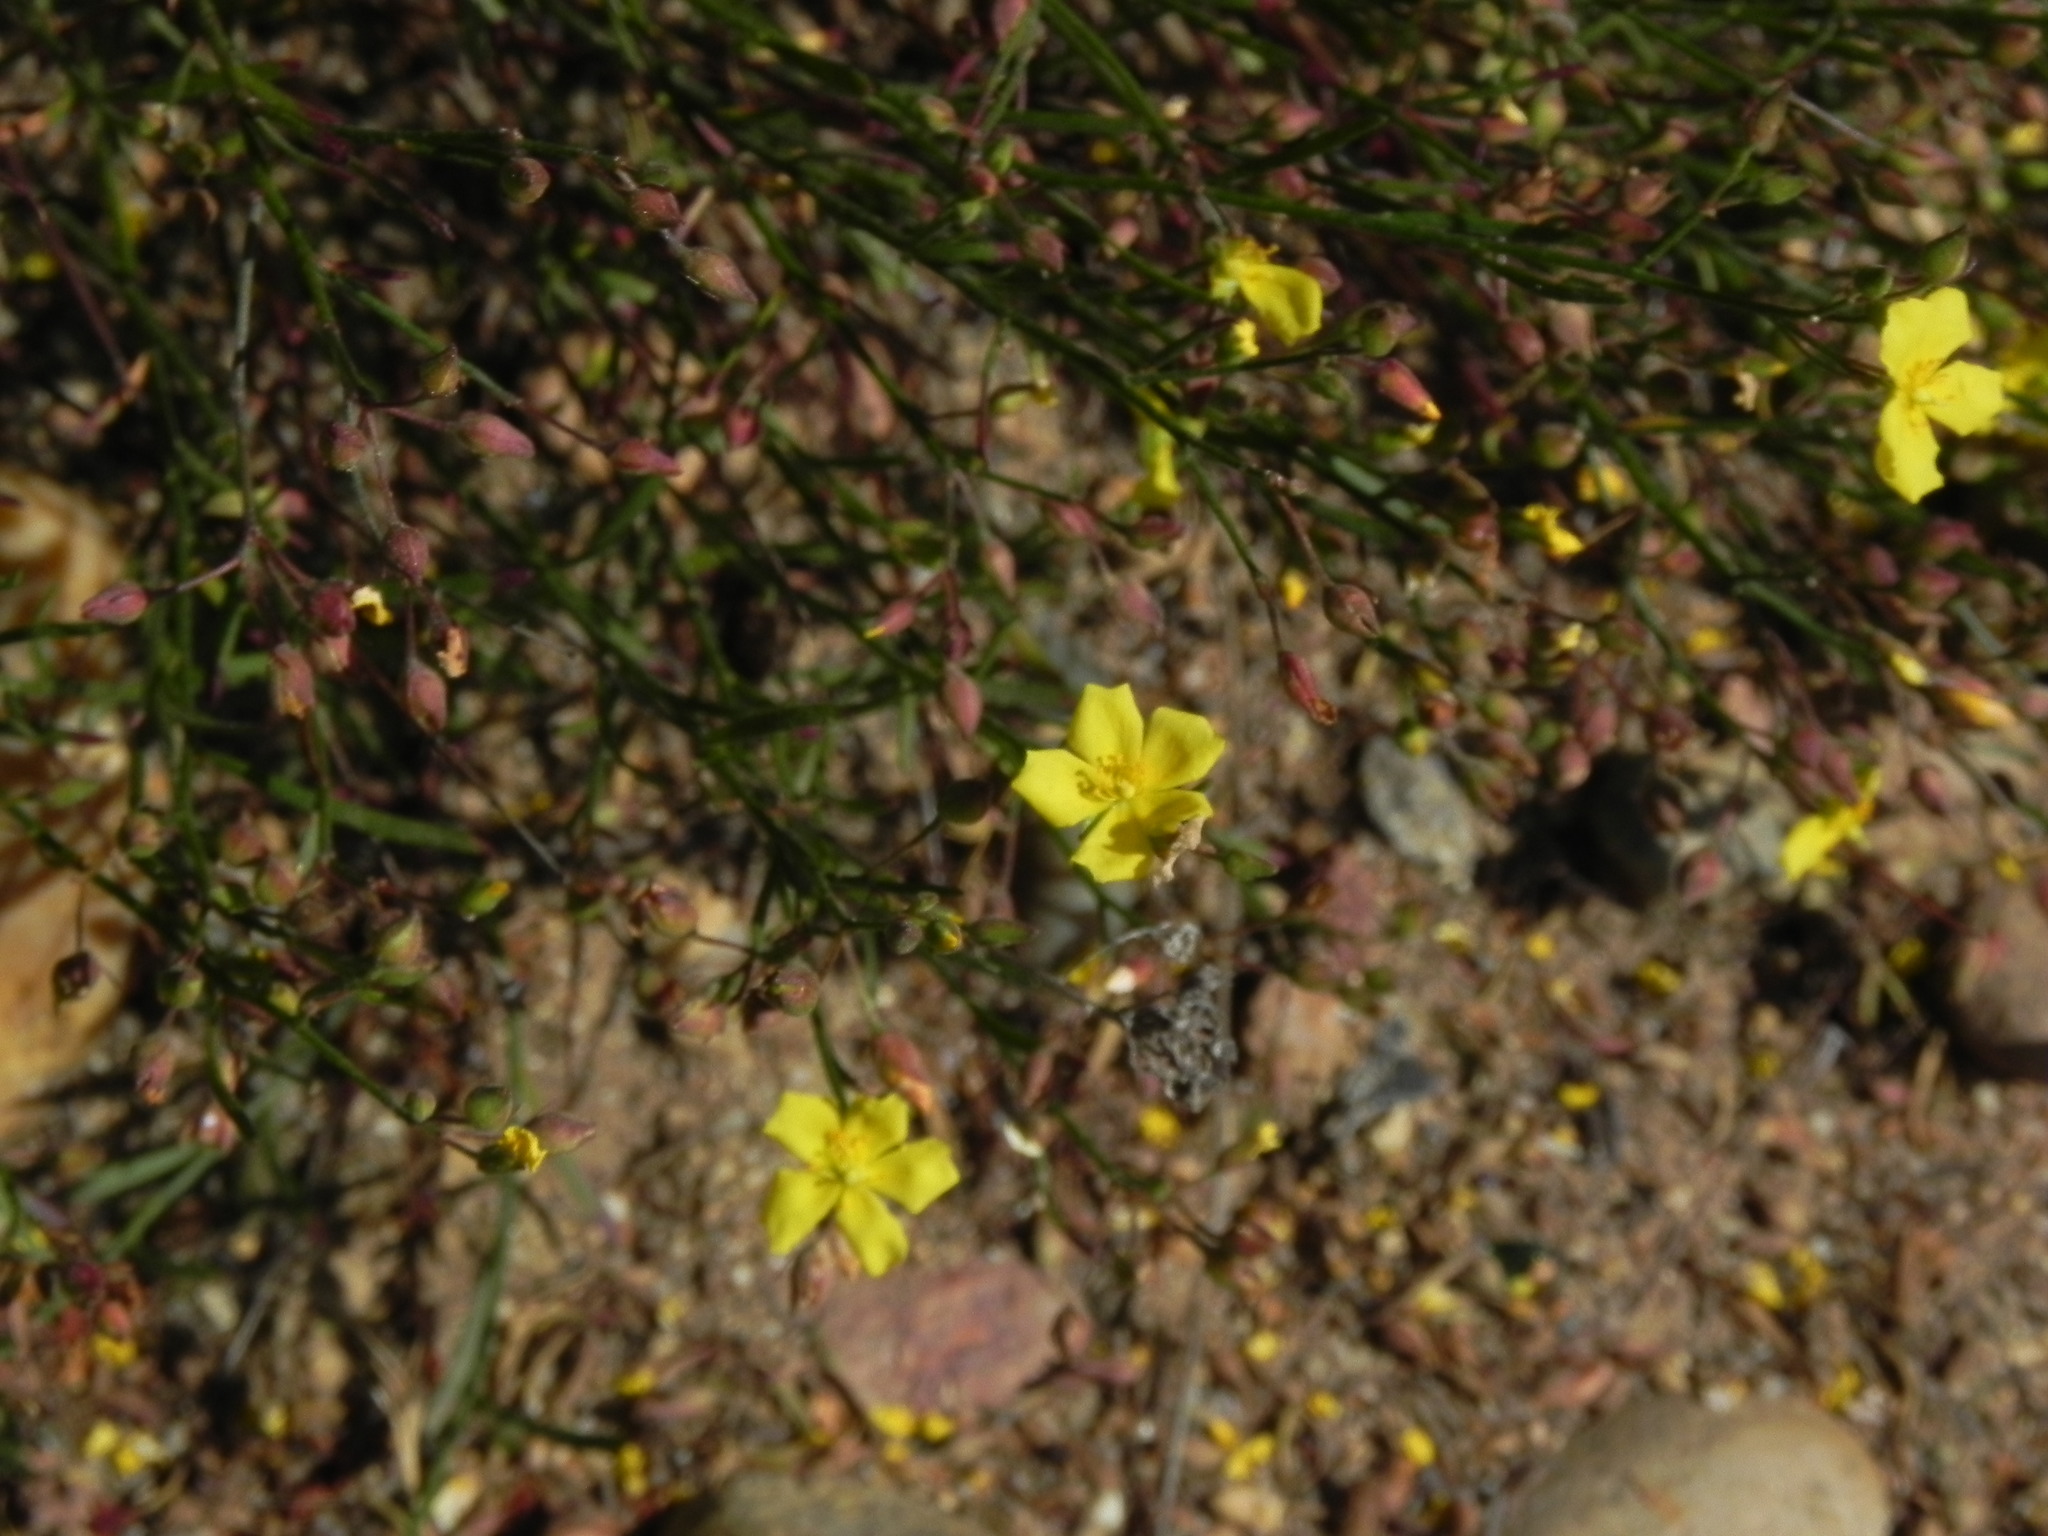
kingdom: Plantae
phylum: Tracheophyta
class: Magnoliopsida
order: Malvales
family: Cistaceae
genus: Crocanthemum
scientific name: Crocanthemum scoparium
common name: Broom-rose
